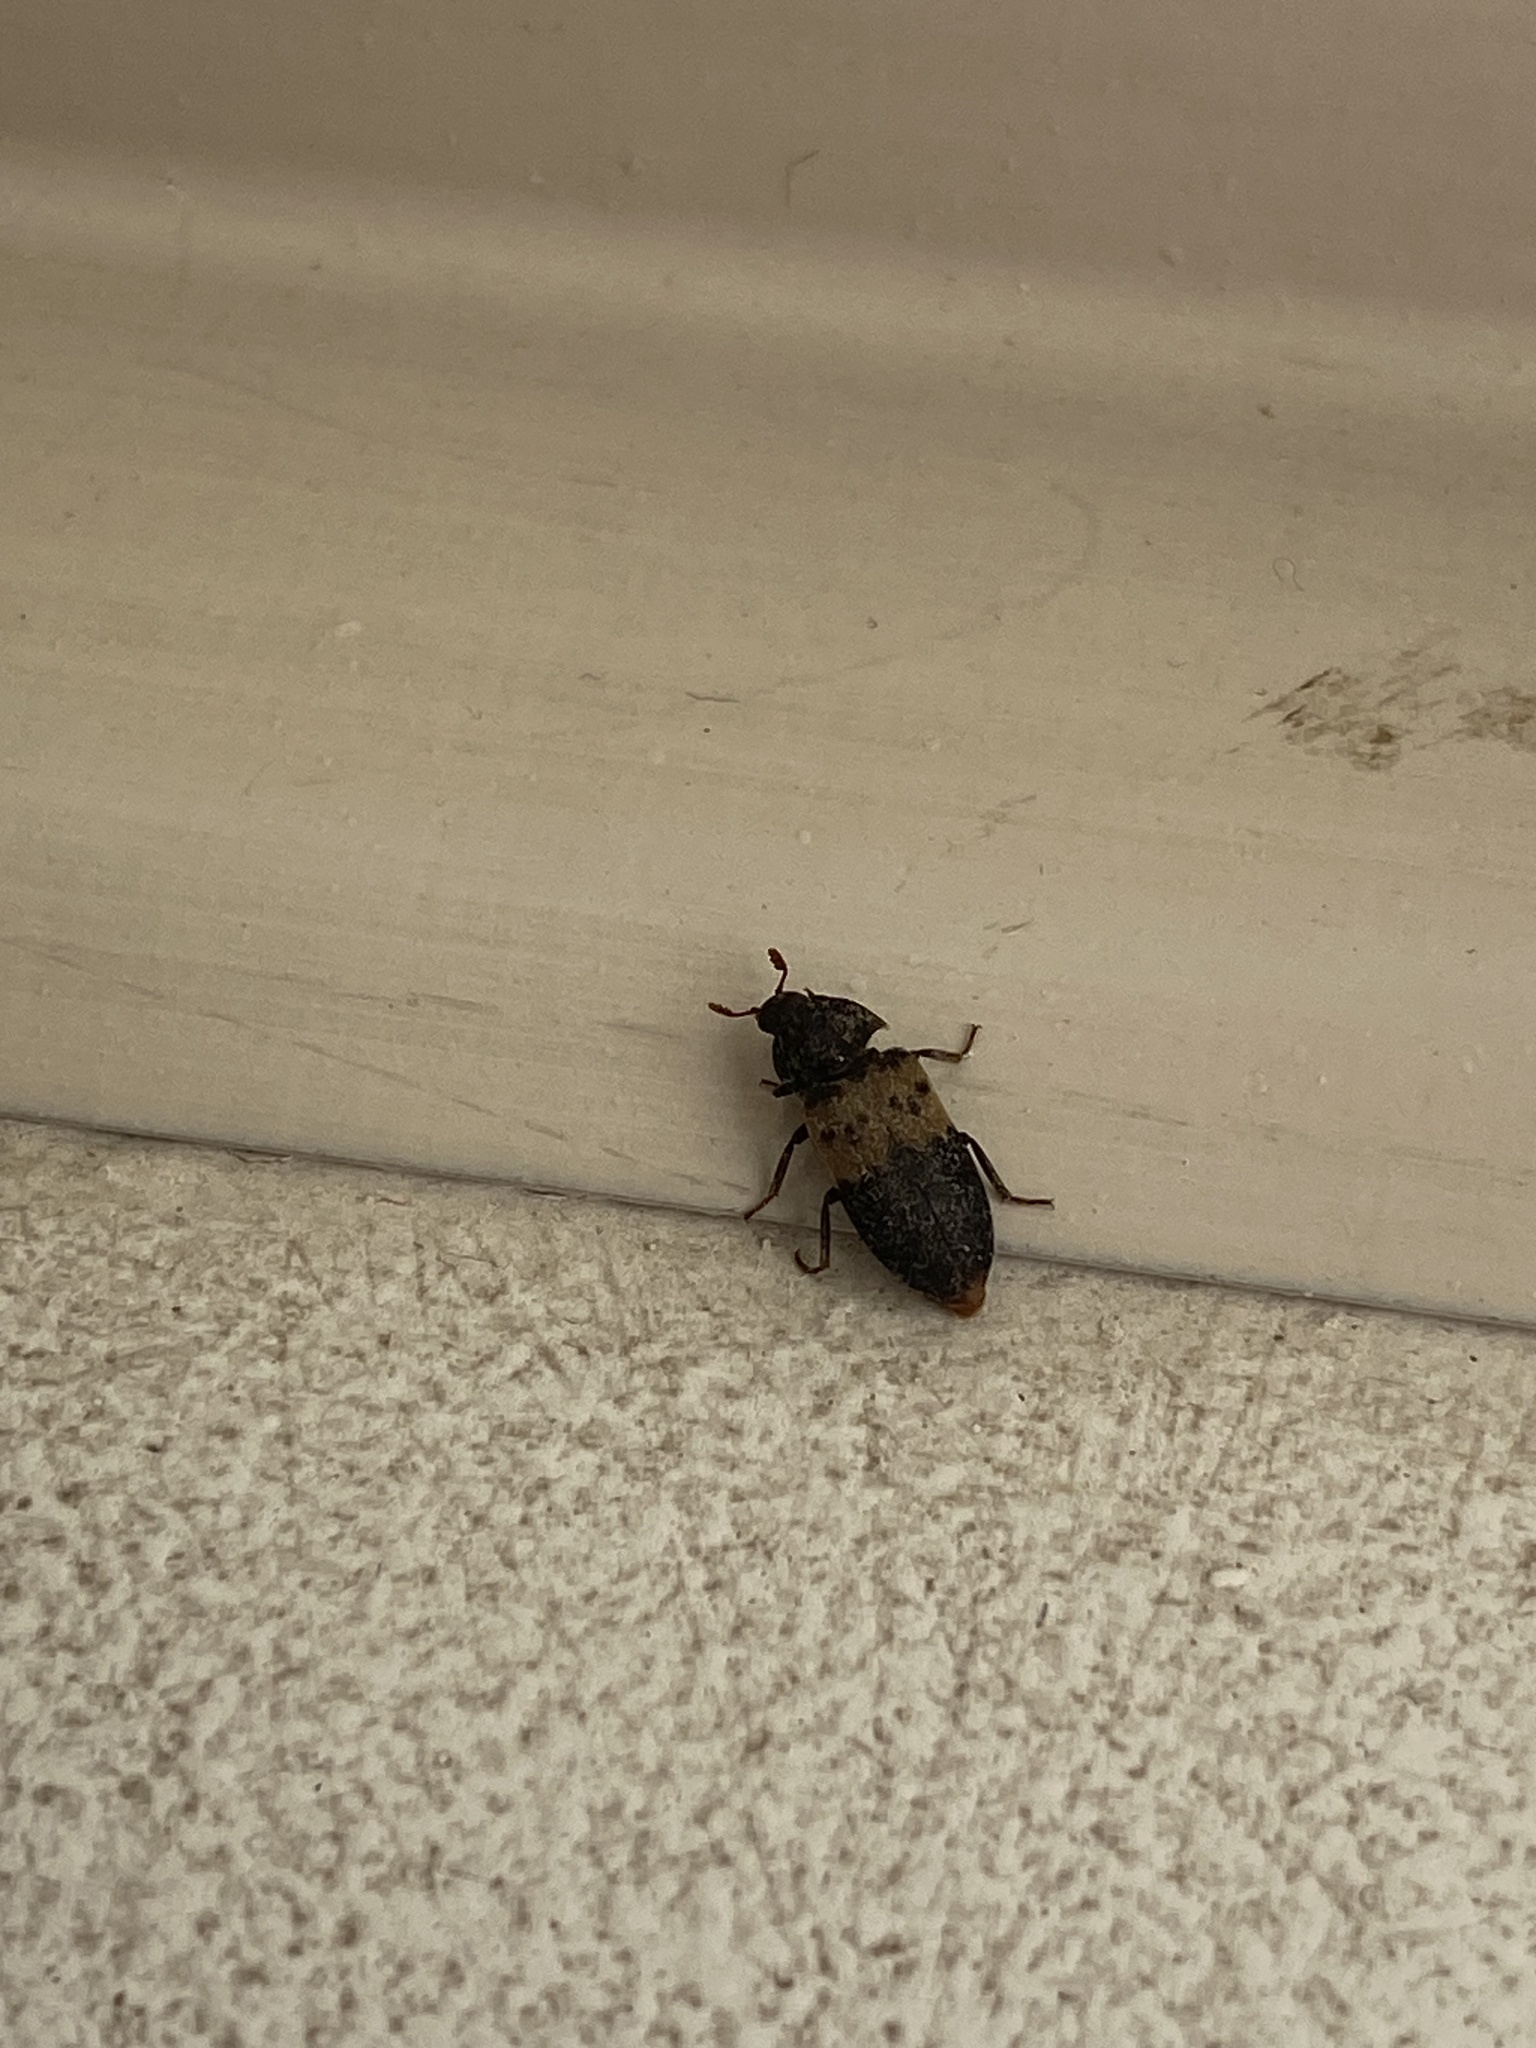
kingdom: Animalia
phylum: Arthropoda
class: Insecta
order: Coleoptera
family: Dermestidae
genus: Dermestes
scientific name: Dermestes lardarius
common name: Larder beetle
